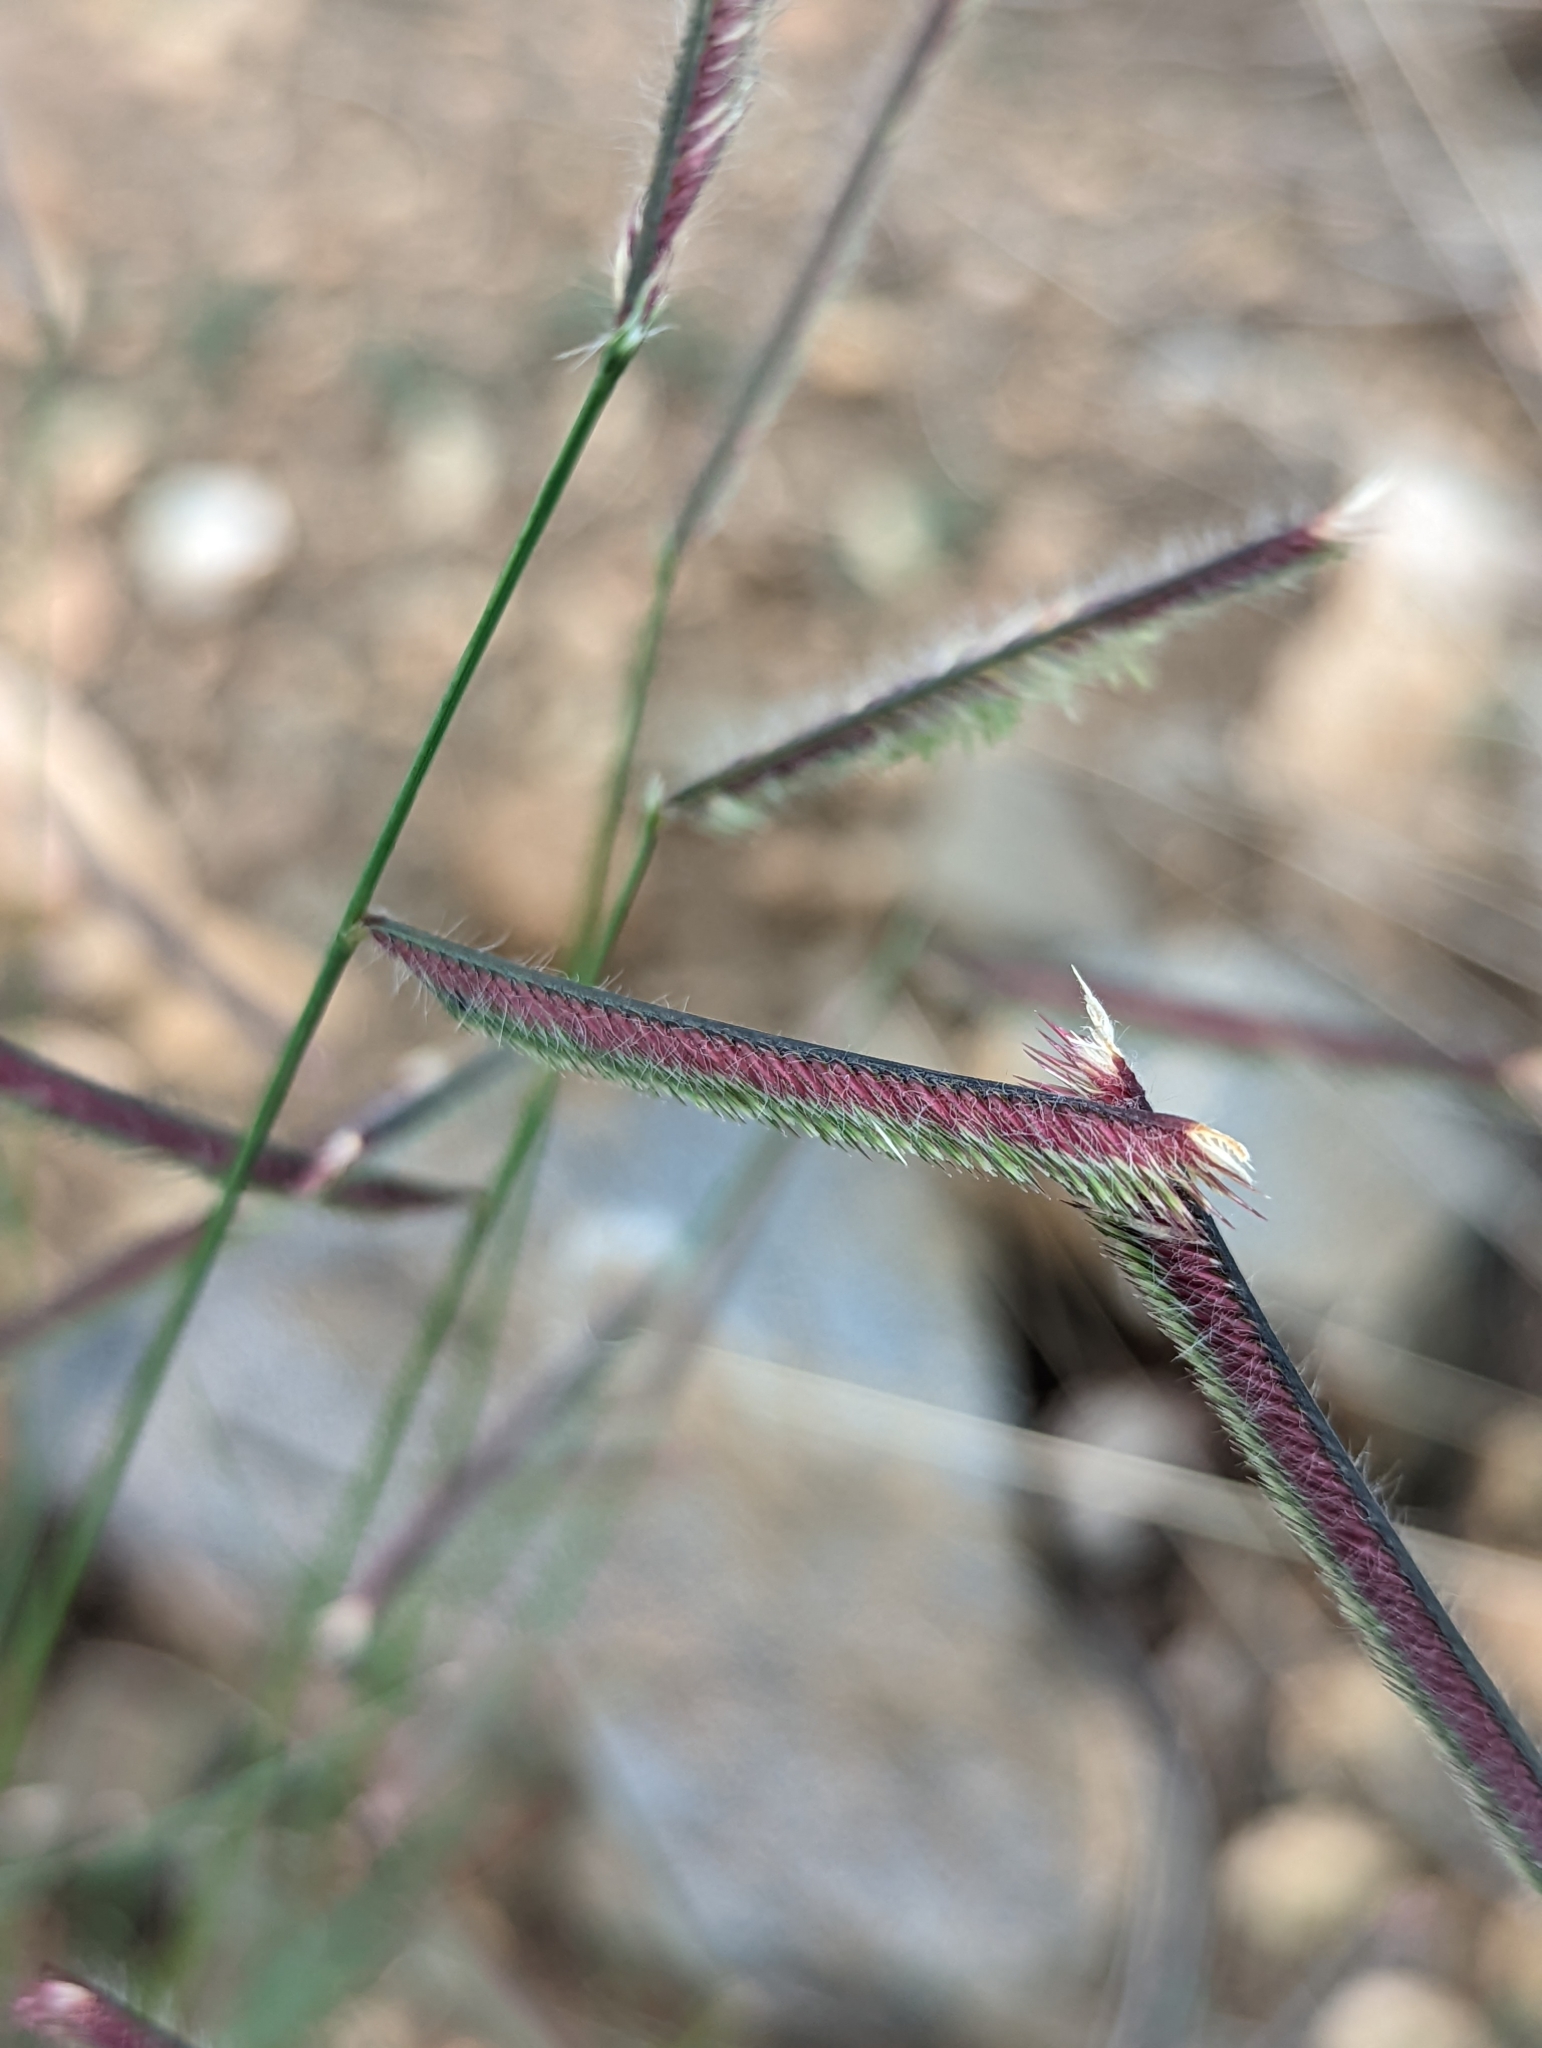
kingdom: Plantae
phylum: Tracheophyta
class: Liliopsida
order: Poales
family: Poaceae
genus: Bouteloua
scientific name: Bouteloua gracilis
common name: Blue grama
